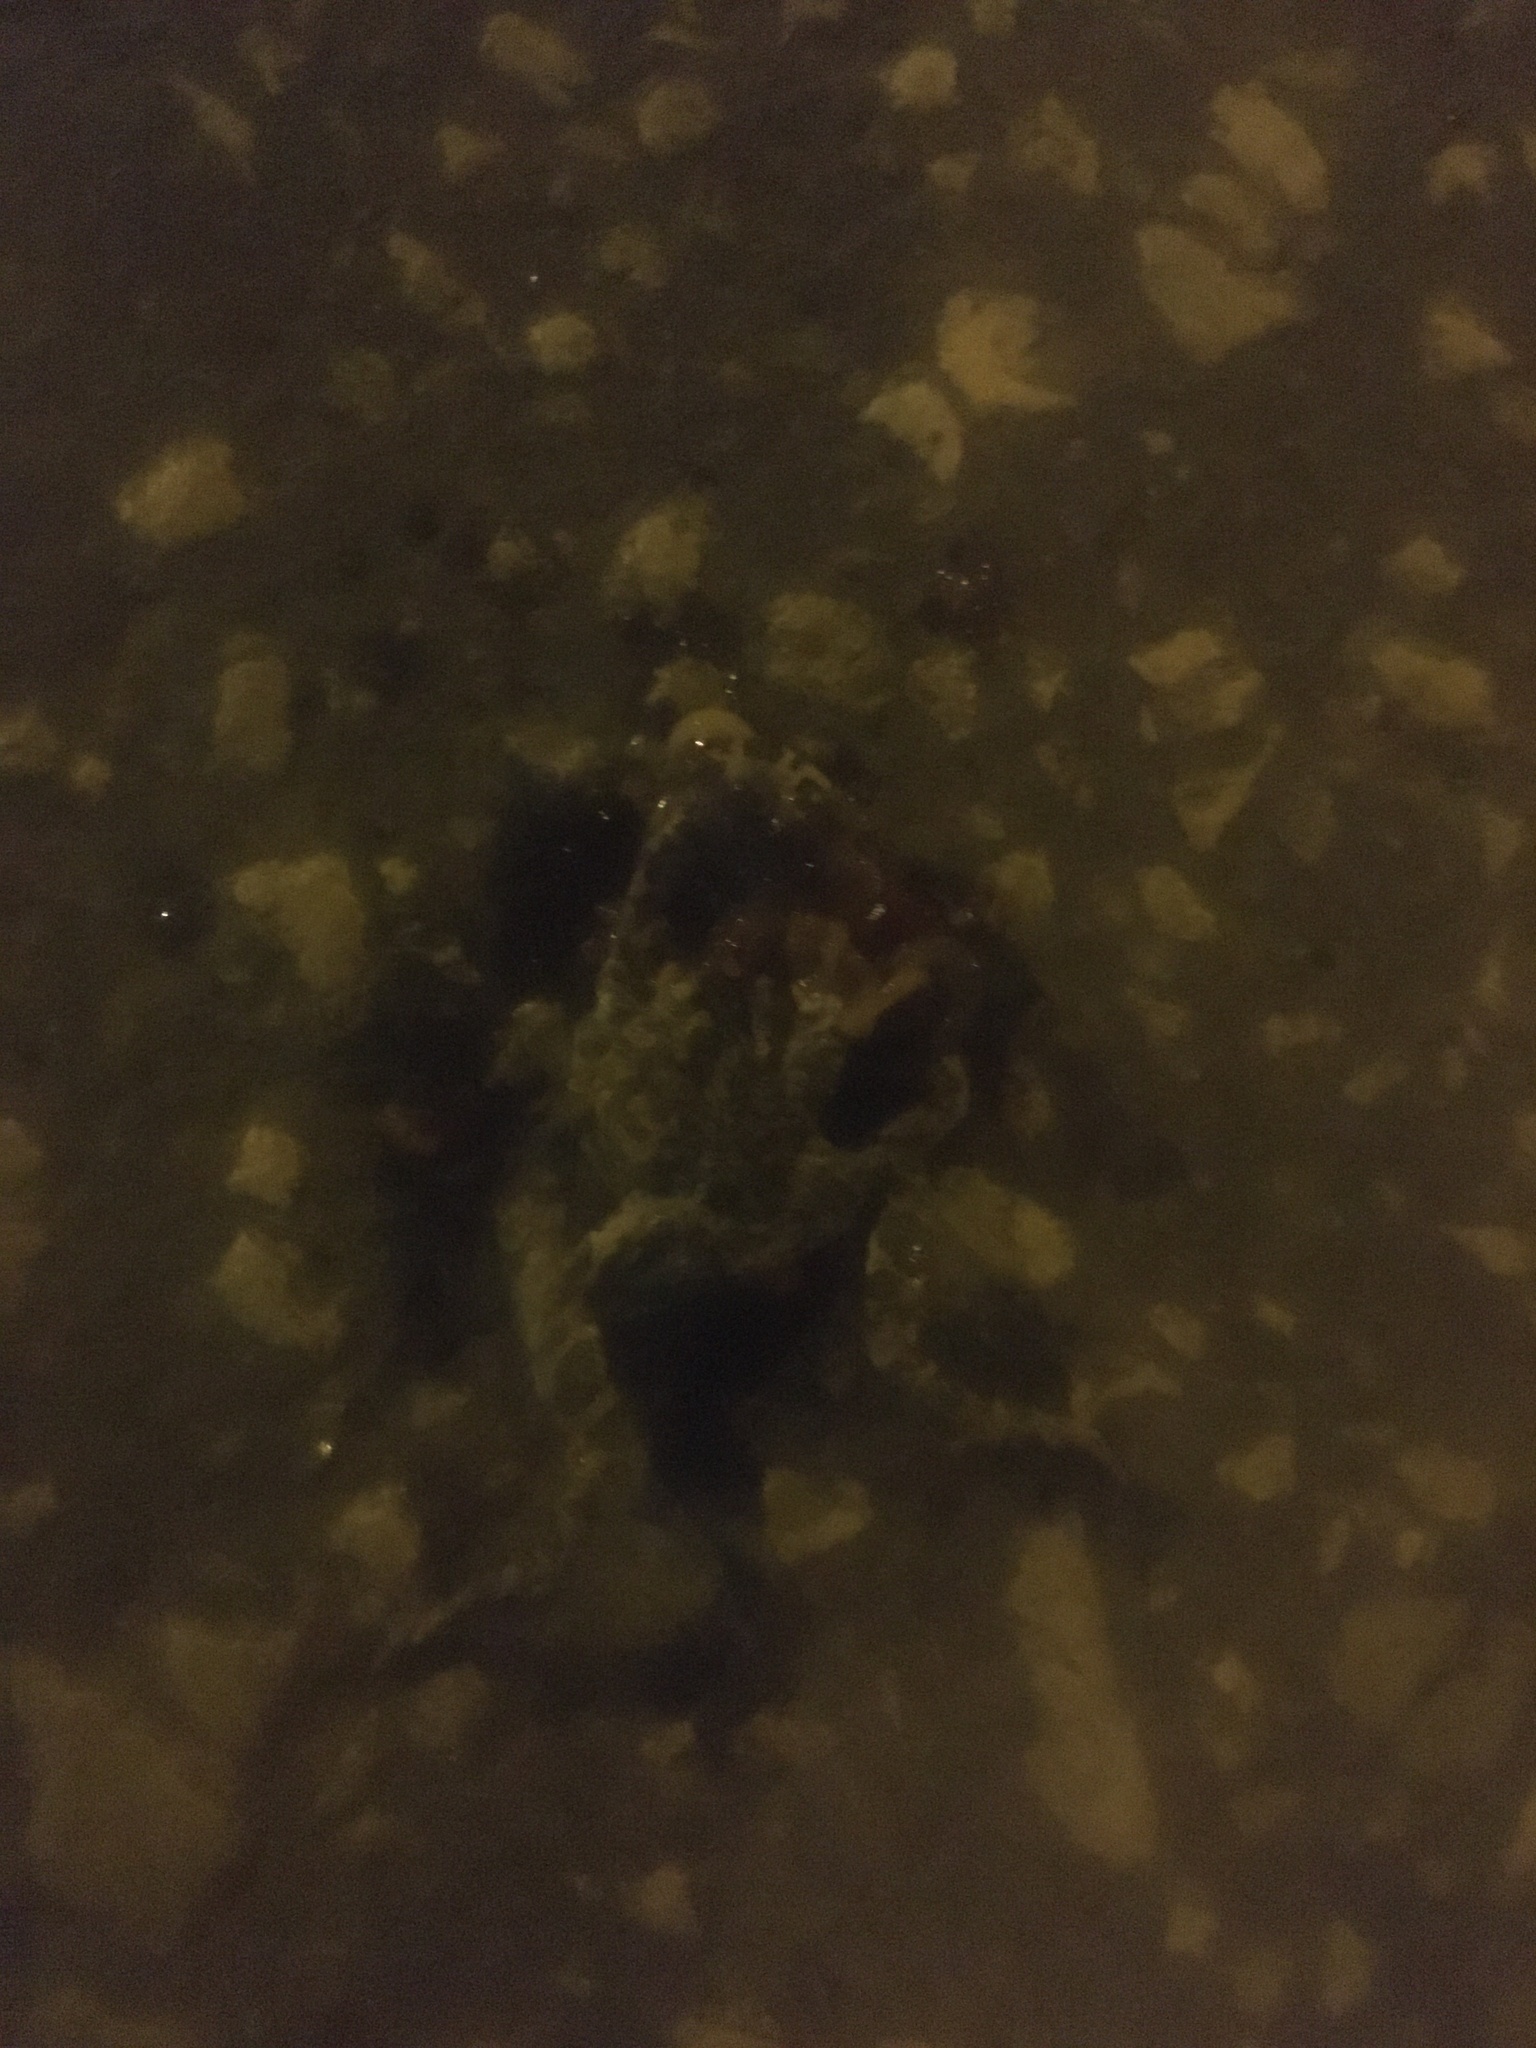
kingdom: Animalia
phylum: Chordata
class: Amphibia
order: Anura
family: Bufonidae
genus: Bufotes
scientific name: Bufotes viridis
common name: European green toad
